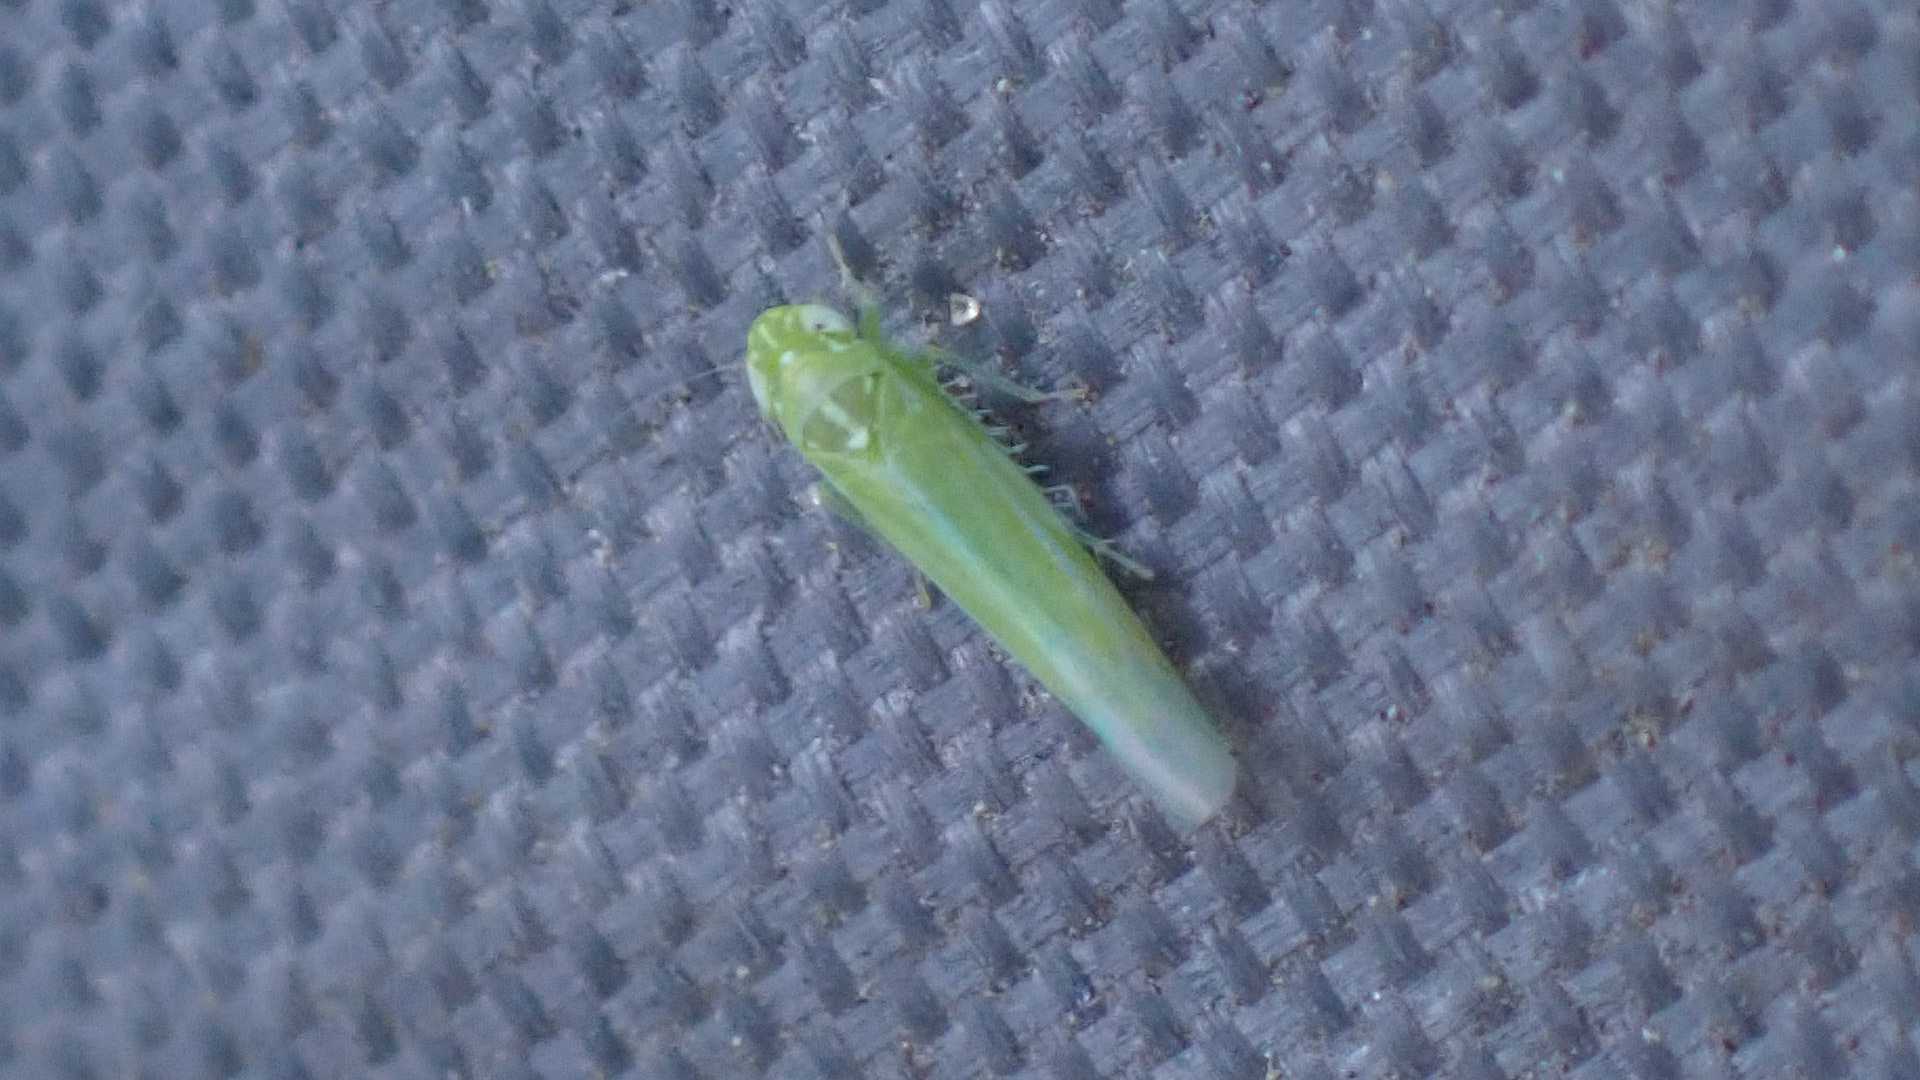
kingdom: Animalia
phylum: Arthropoda
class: Insecta
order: Hemiptera
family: Cicadellidae
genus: Hebata
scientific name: Hebata vitis
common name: The smaller green leafhopper
